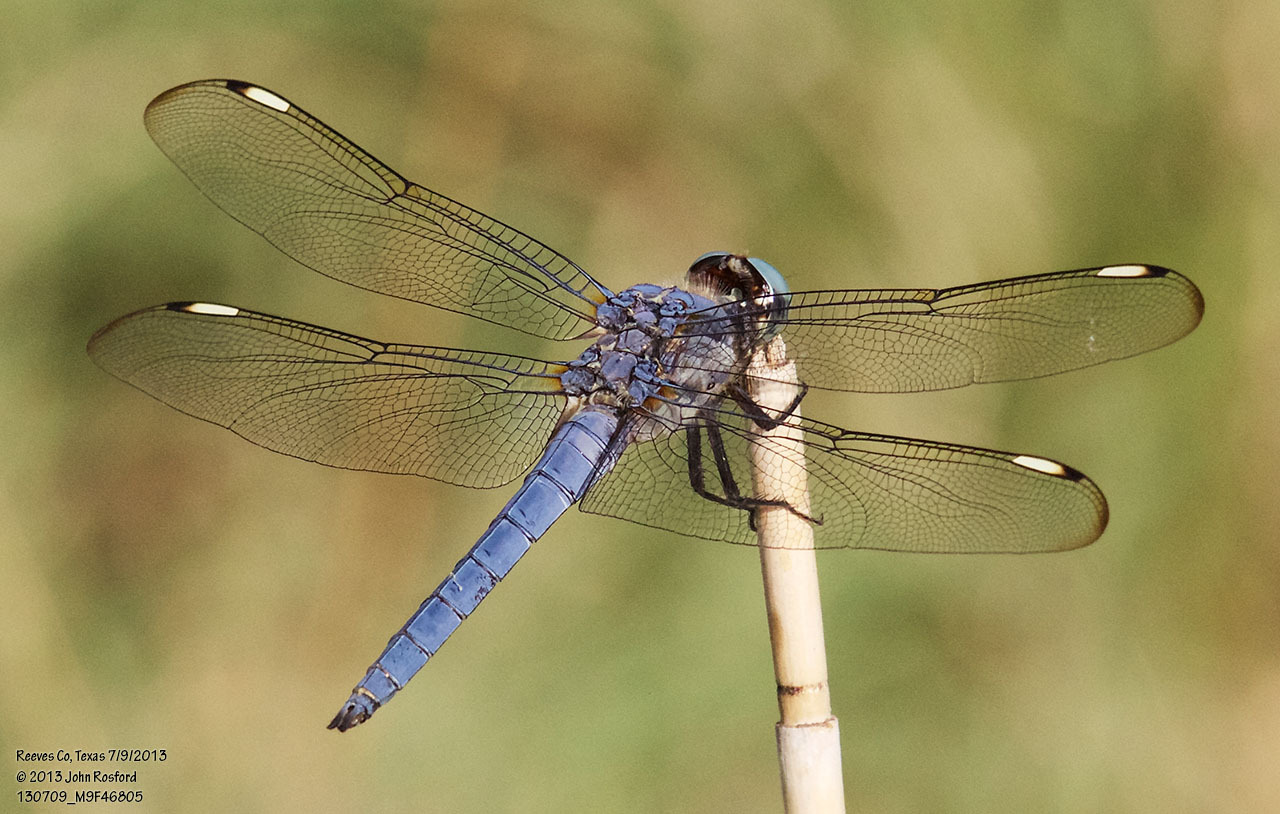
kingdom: Animalia
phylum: Arthropoda
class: Insecta
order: Odonata
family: Libellulidae
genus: Libellula
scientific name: Libellula comanche
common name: Comanche skimmer
